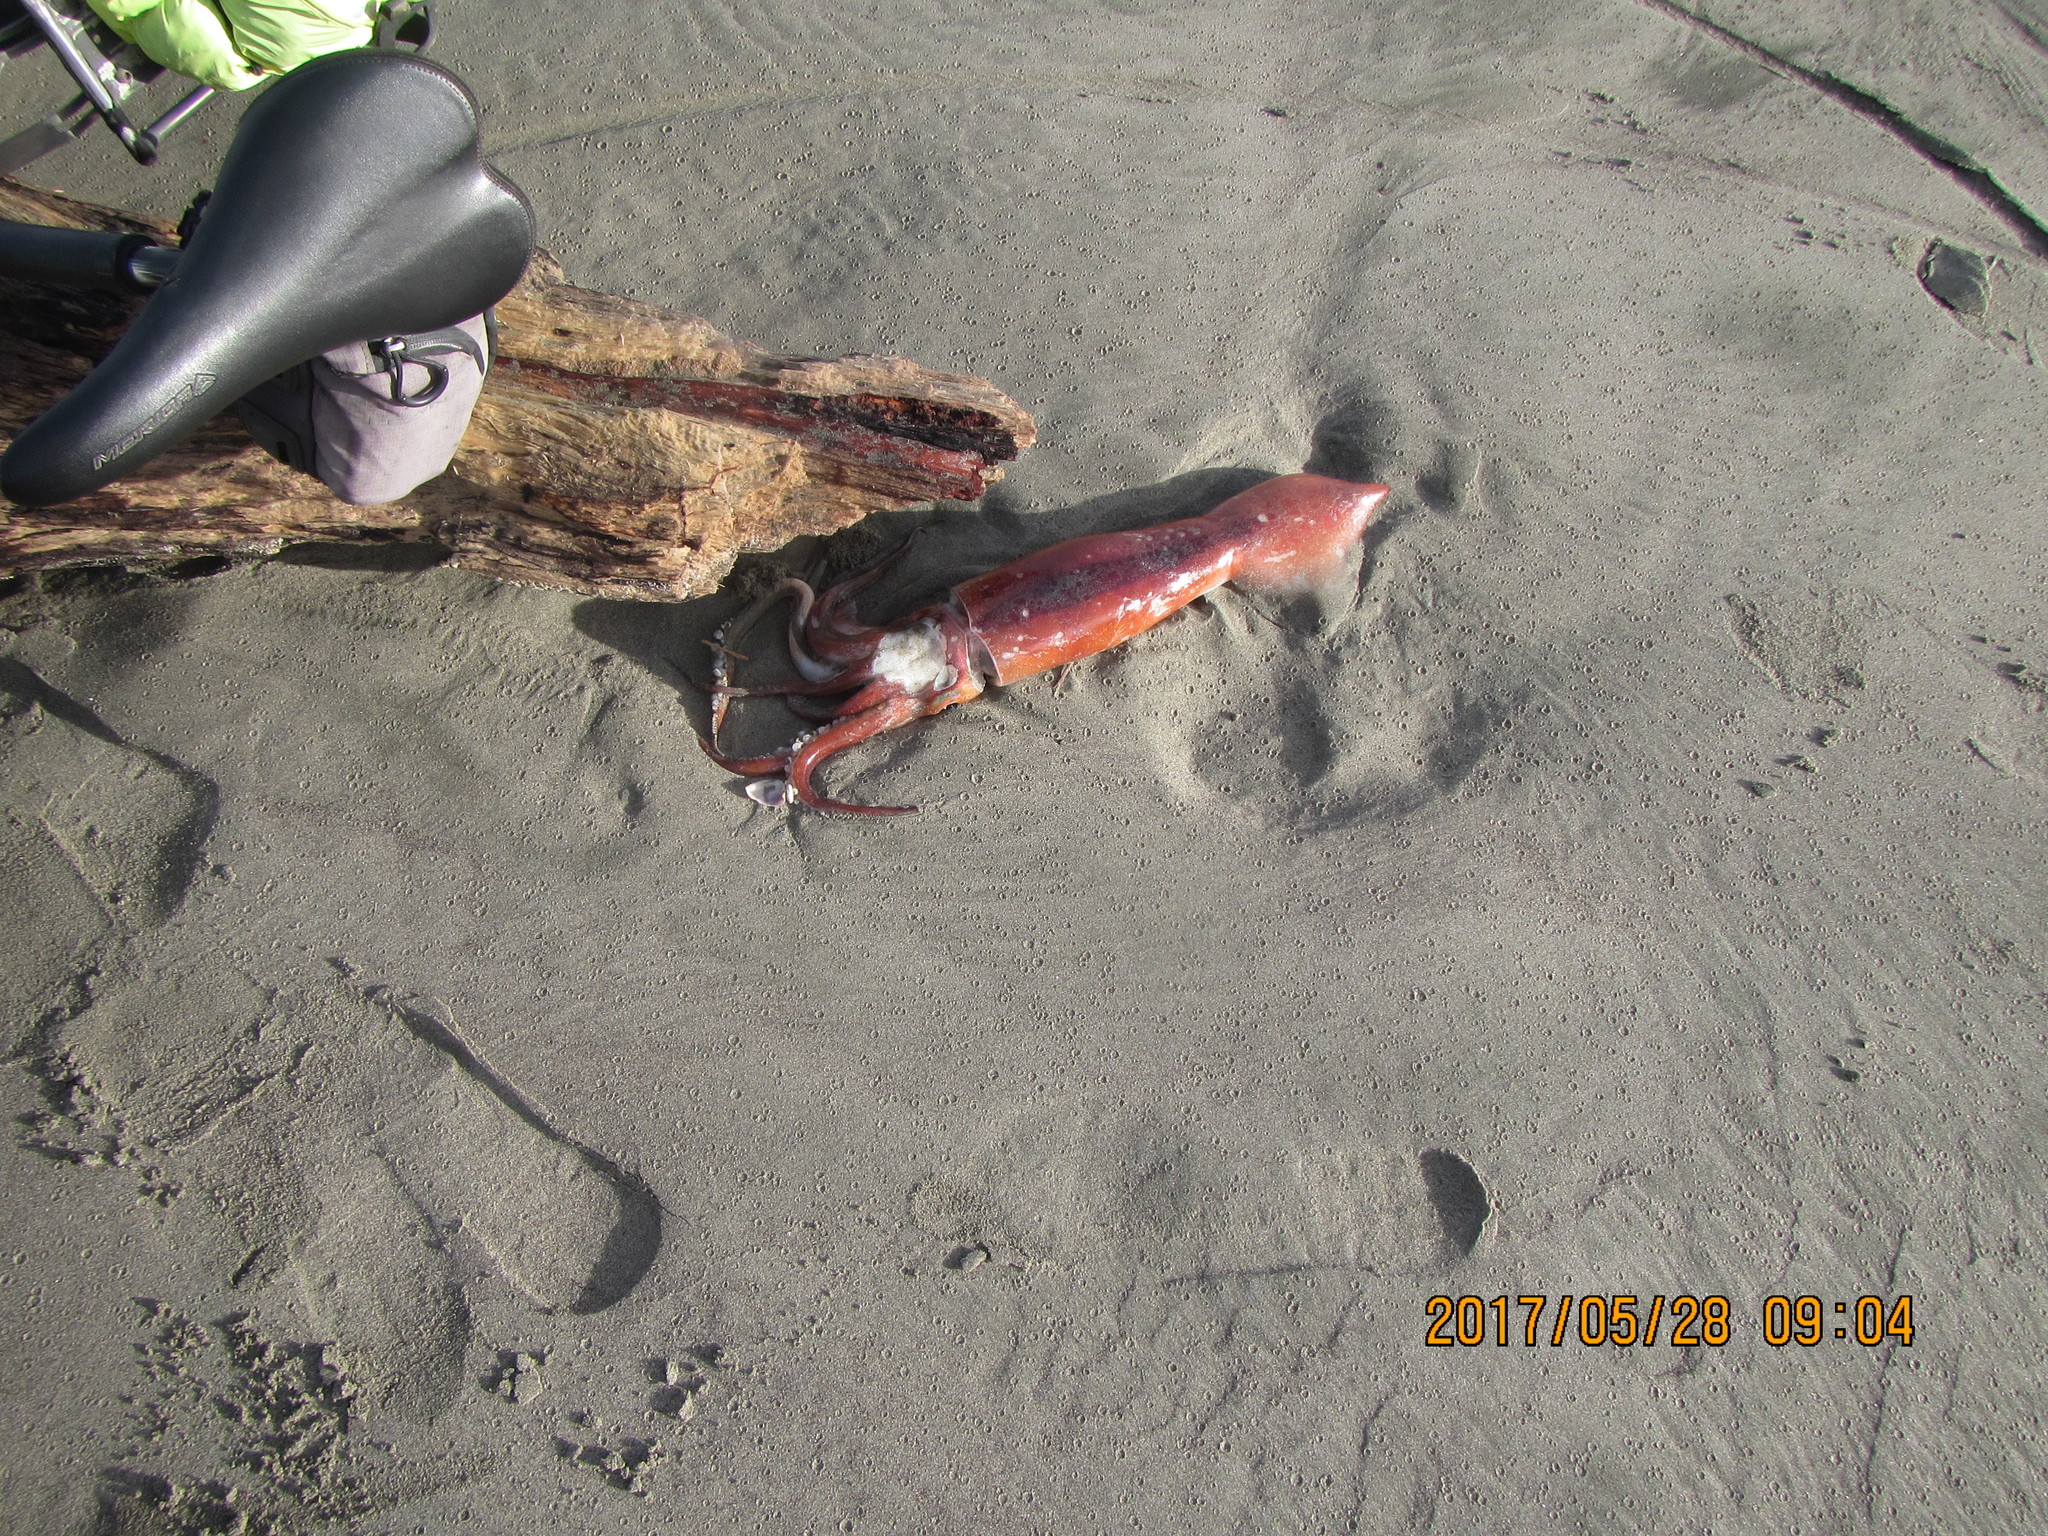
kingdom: Animalia
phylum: Mollusca
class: Cephalopoda
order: Oegopsida
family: Ommastrephidae
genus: Nototodarus
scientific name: Nototodarus gouldi
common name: Gould's flying squid
